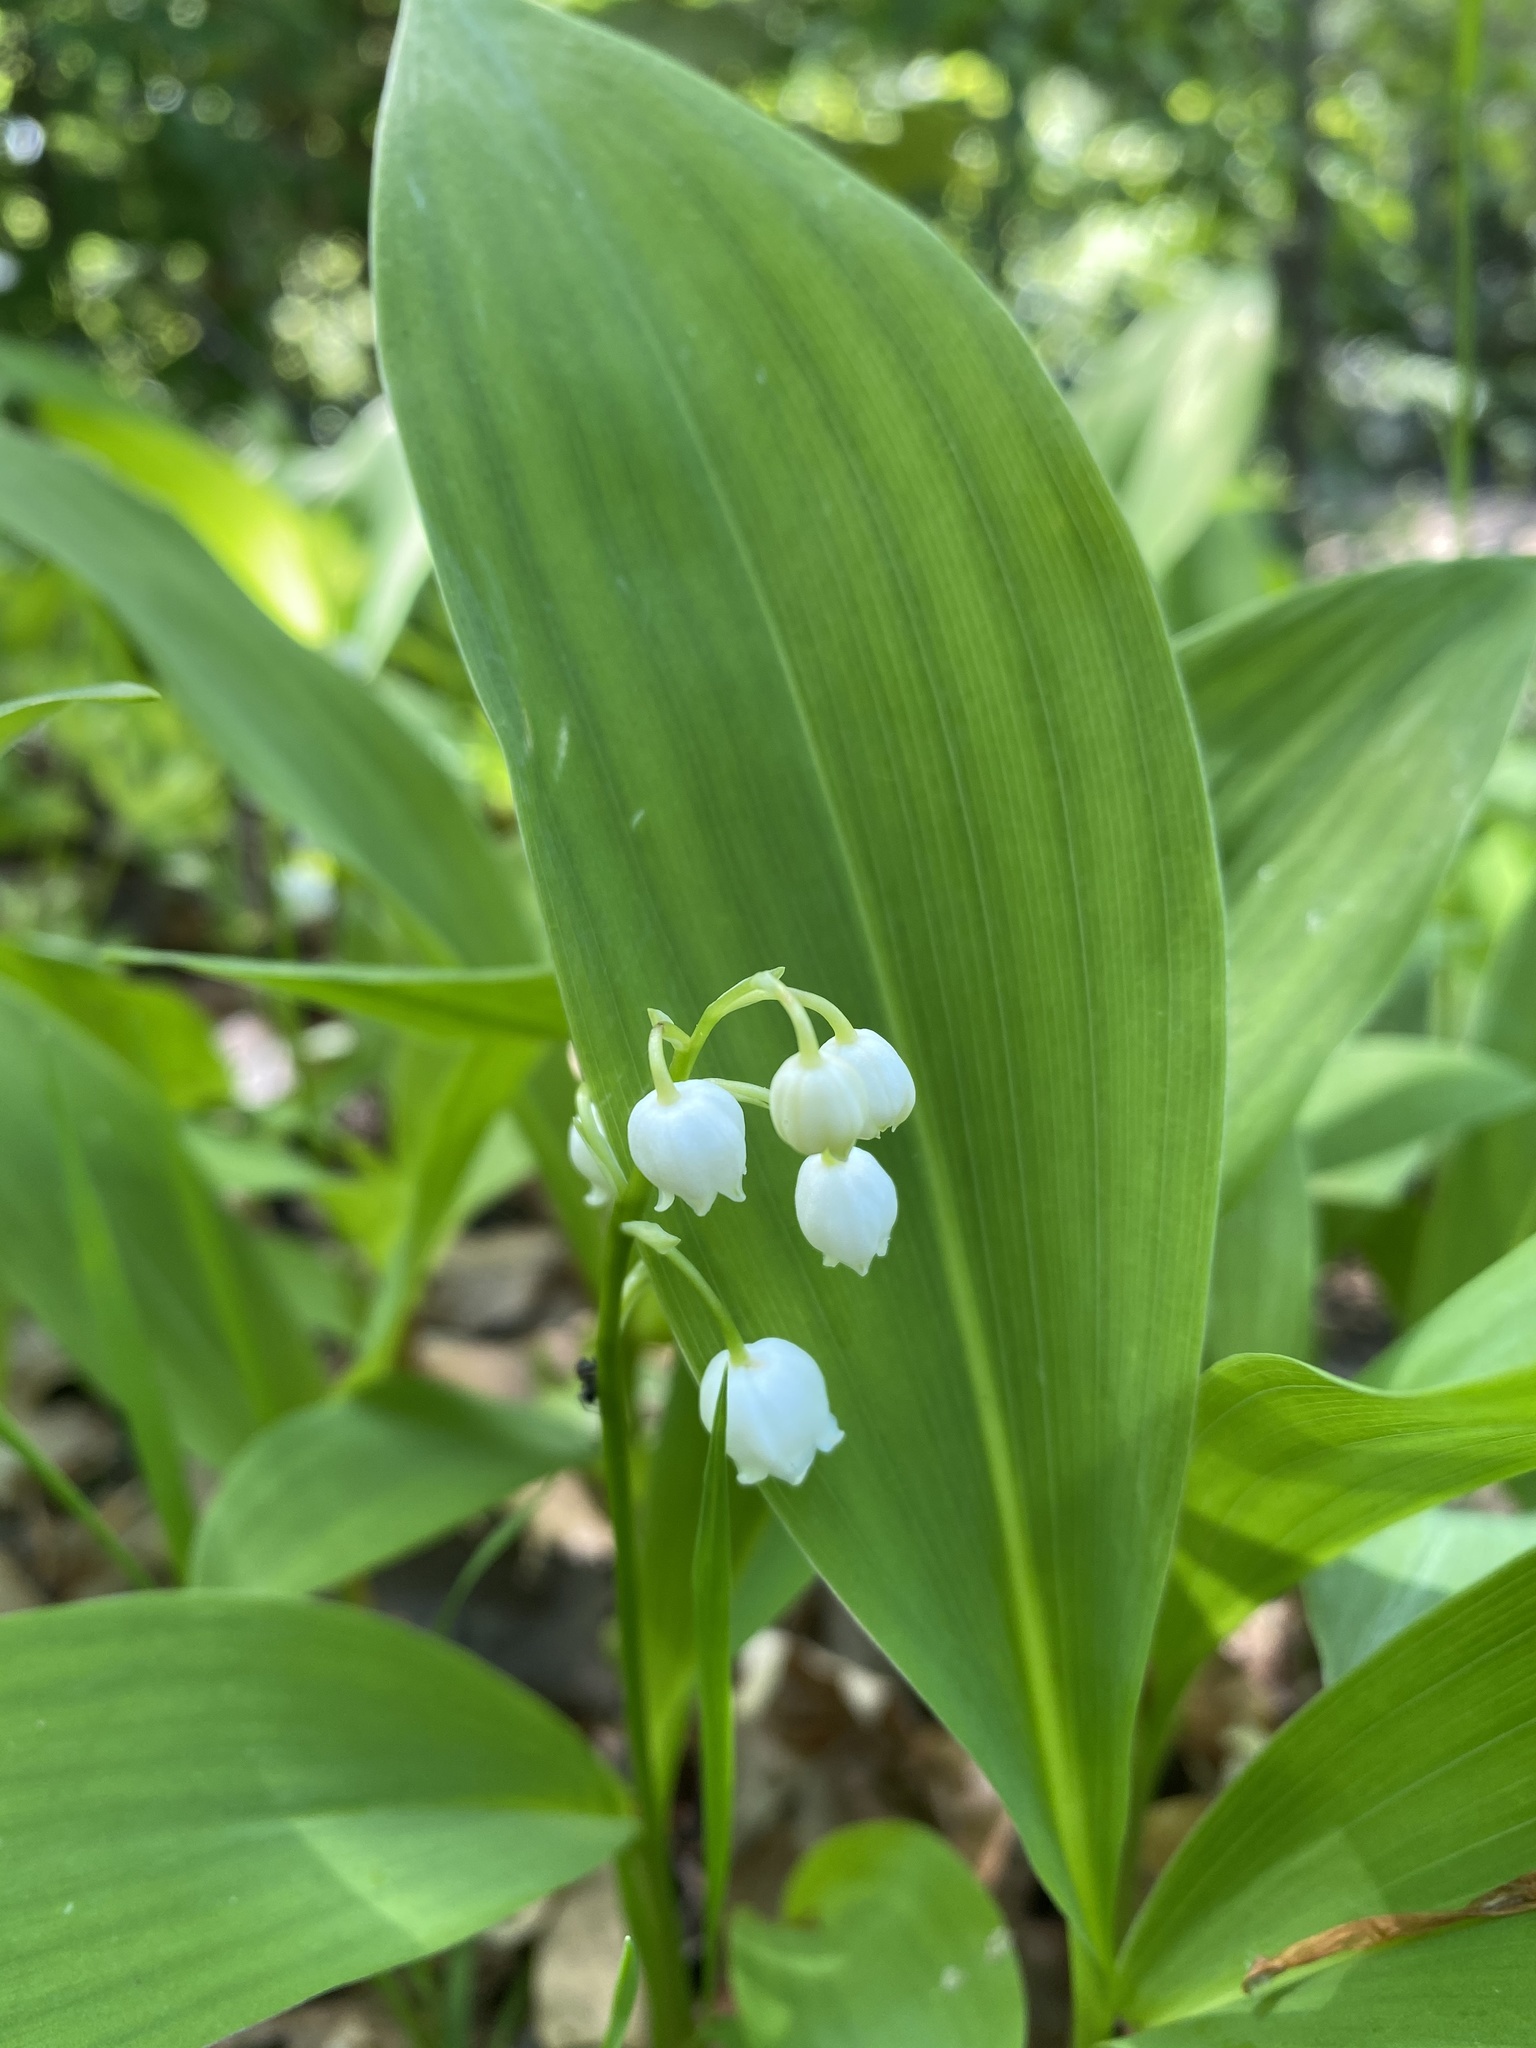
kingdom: Plantae
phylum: Tracheophyta
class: Liliopsida
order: Asparagales
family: Asparagaceae
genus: Convallaria
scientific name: Convallaria majalis
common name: Lily-of-the-valley
